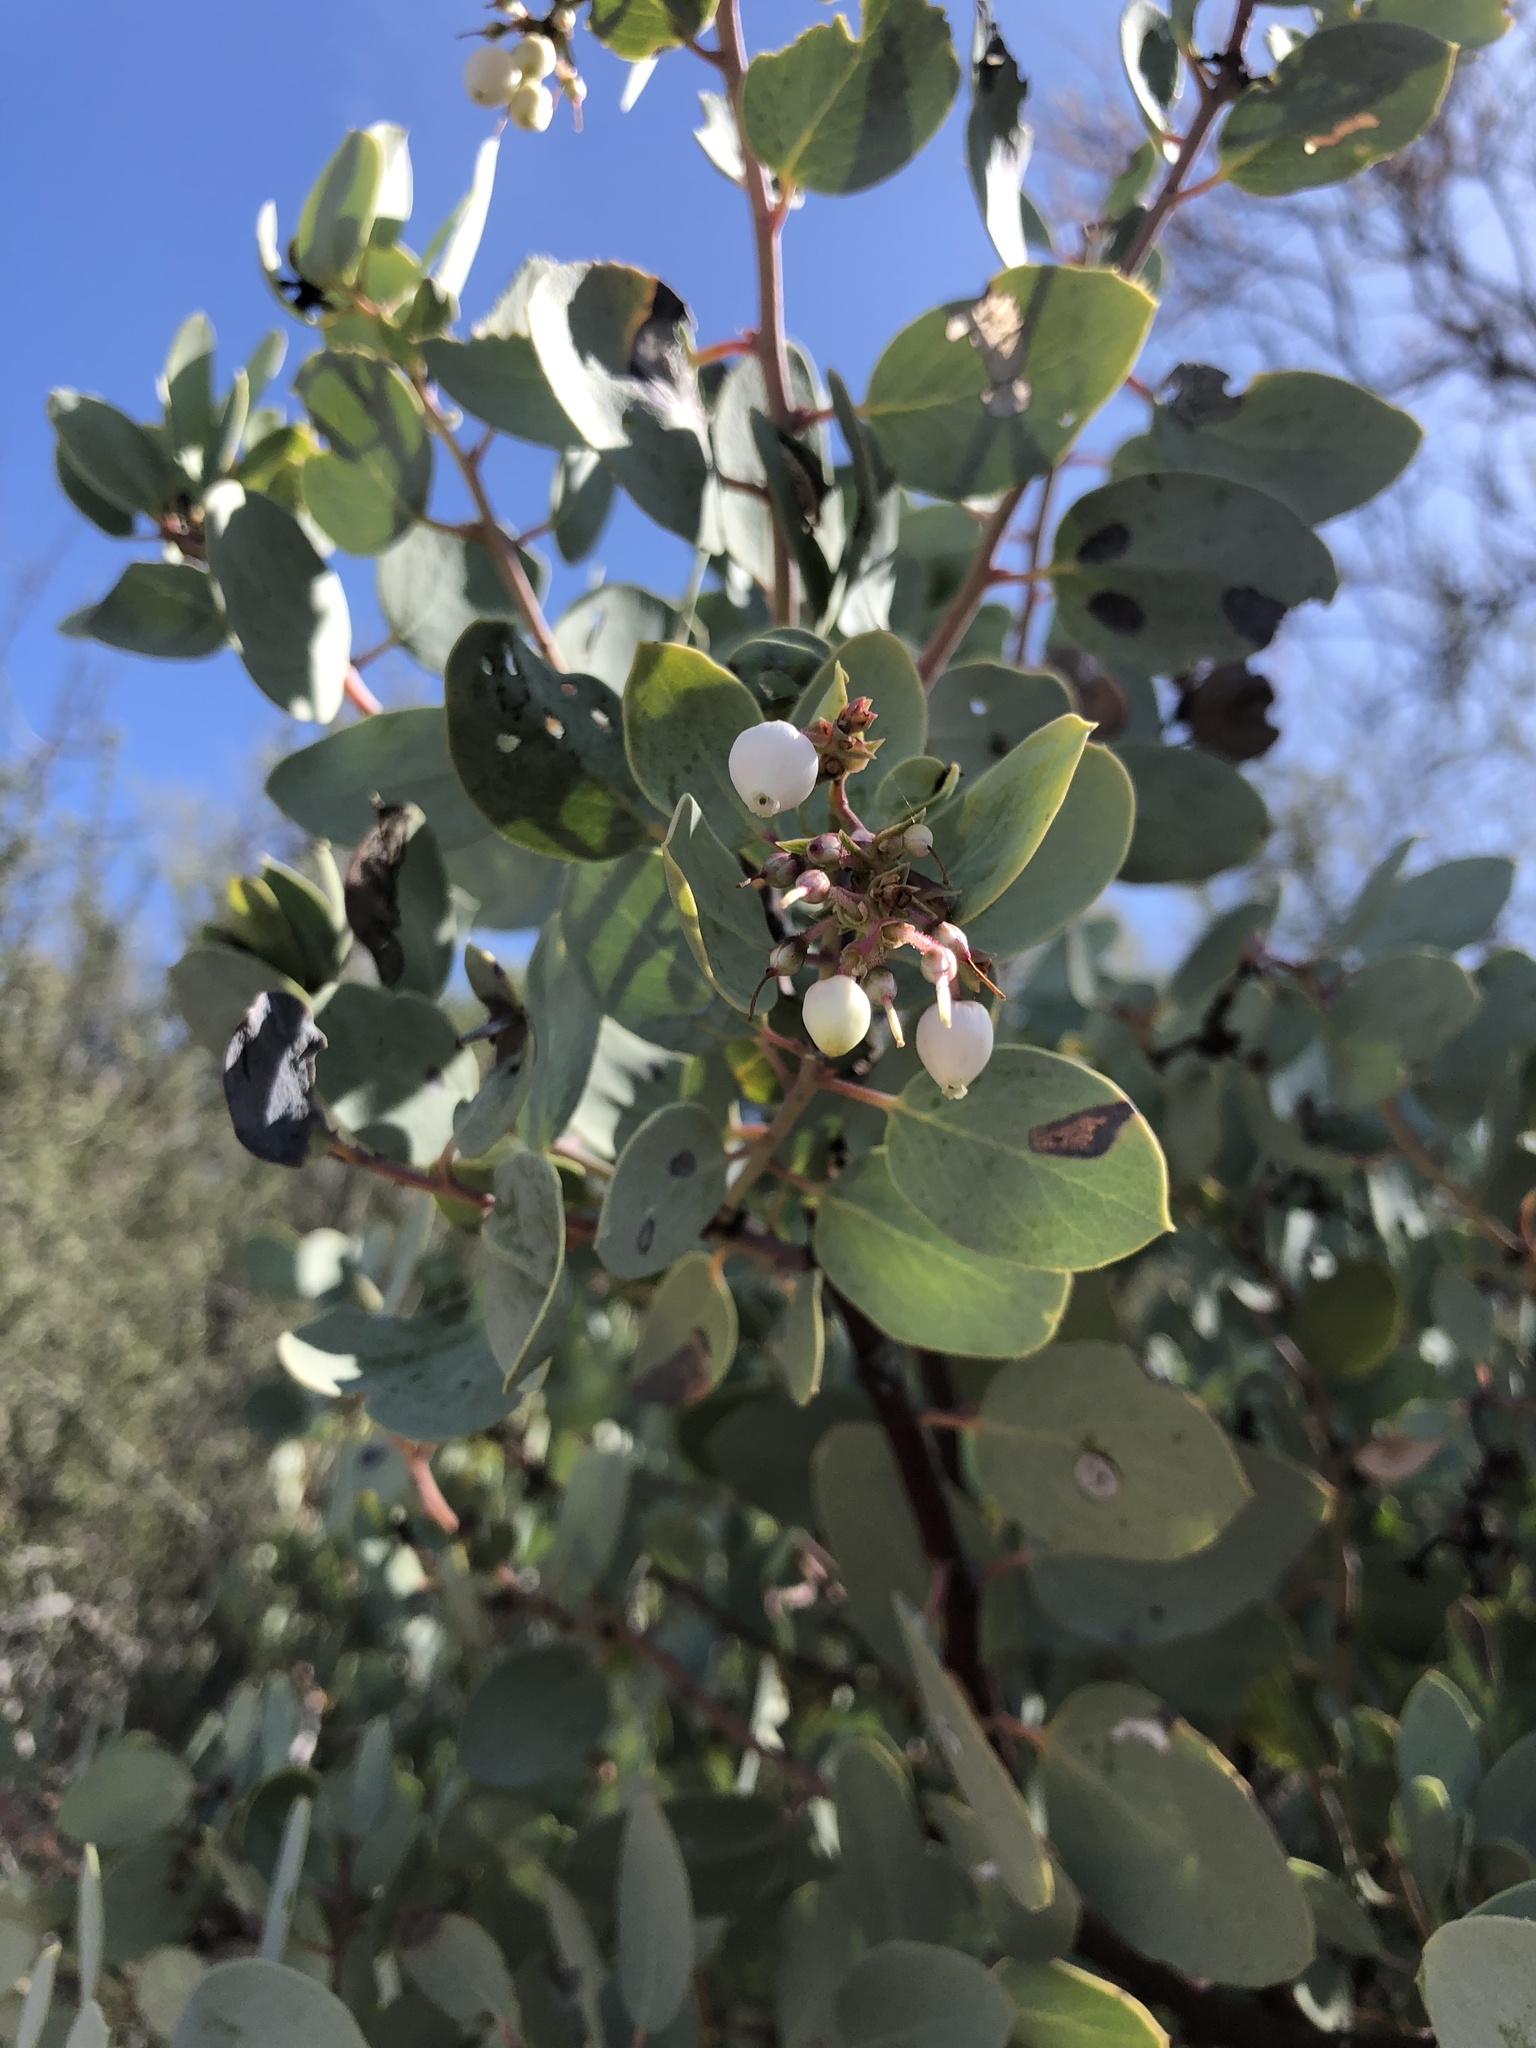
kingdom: Plantae
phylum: Tracheophyta
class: Magnoliopsida
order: Ericales
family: Ericaceae
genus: Arctostaphylos
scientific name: Arctostaphylos glauca
